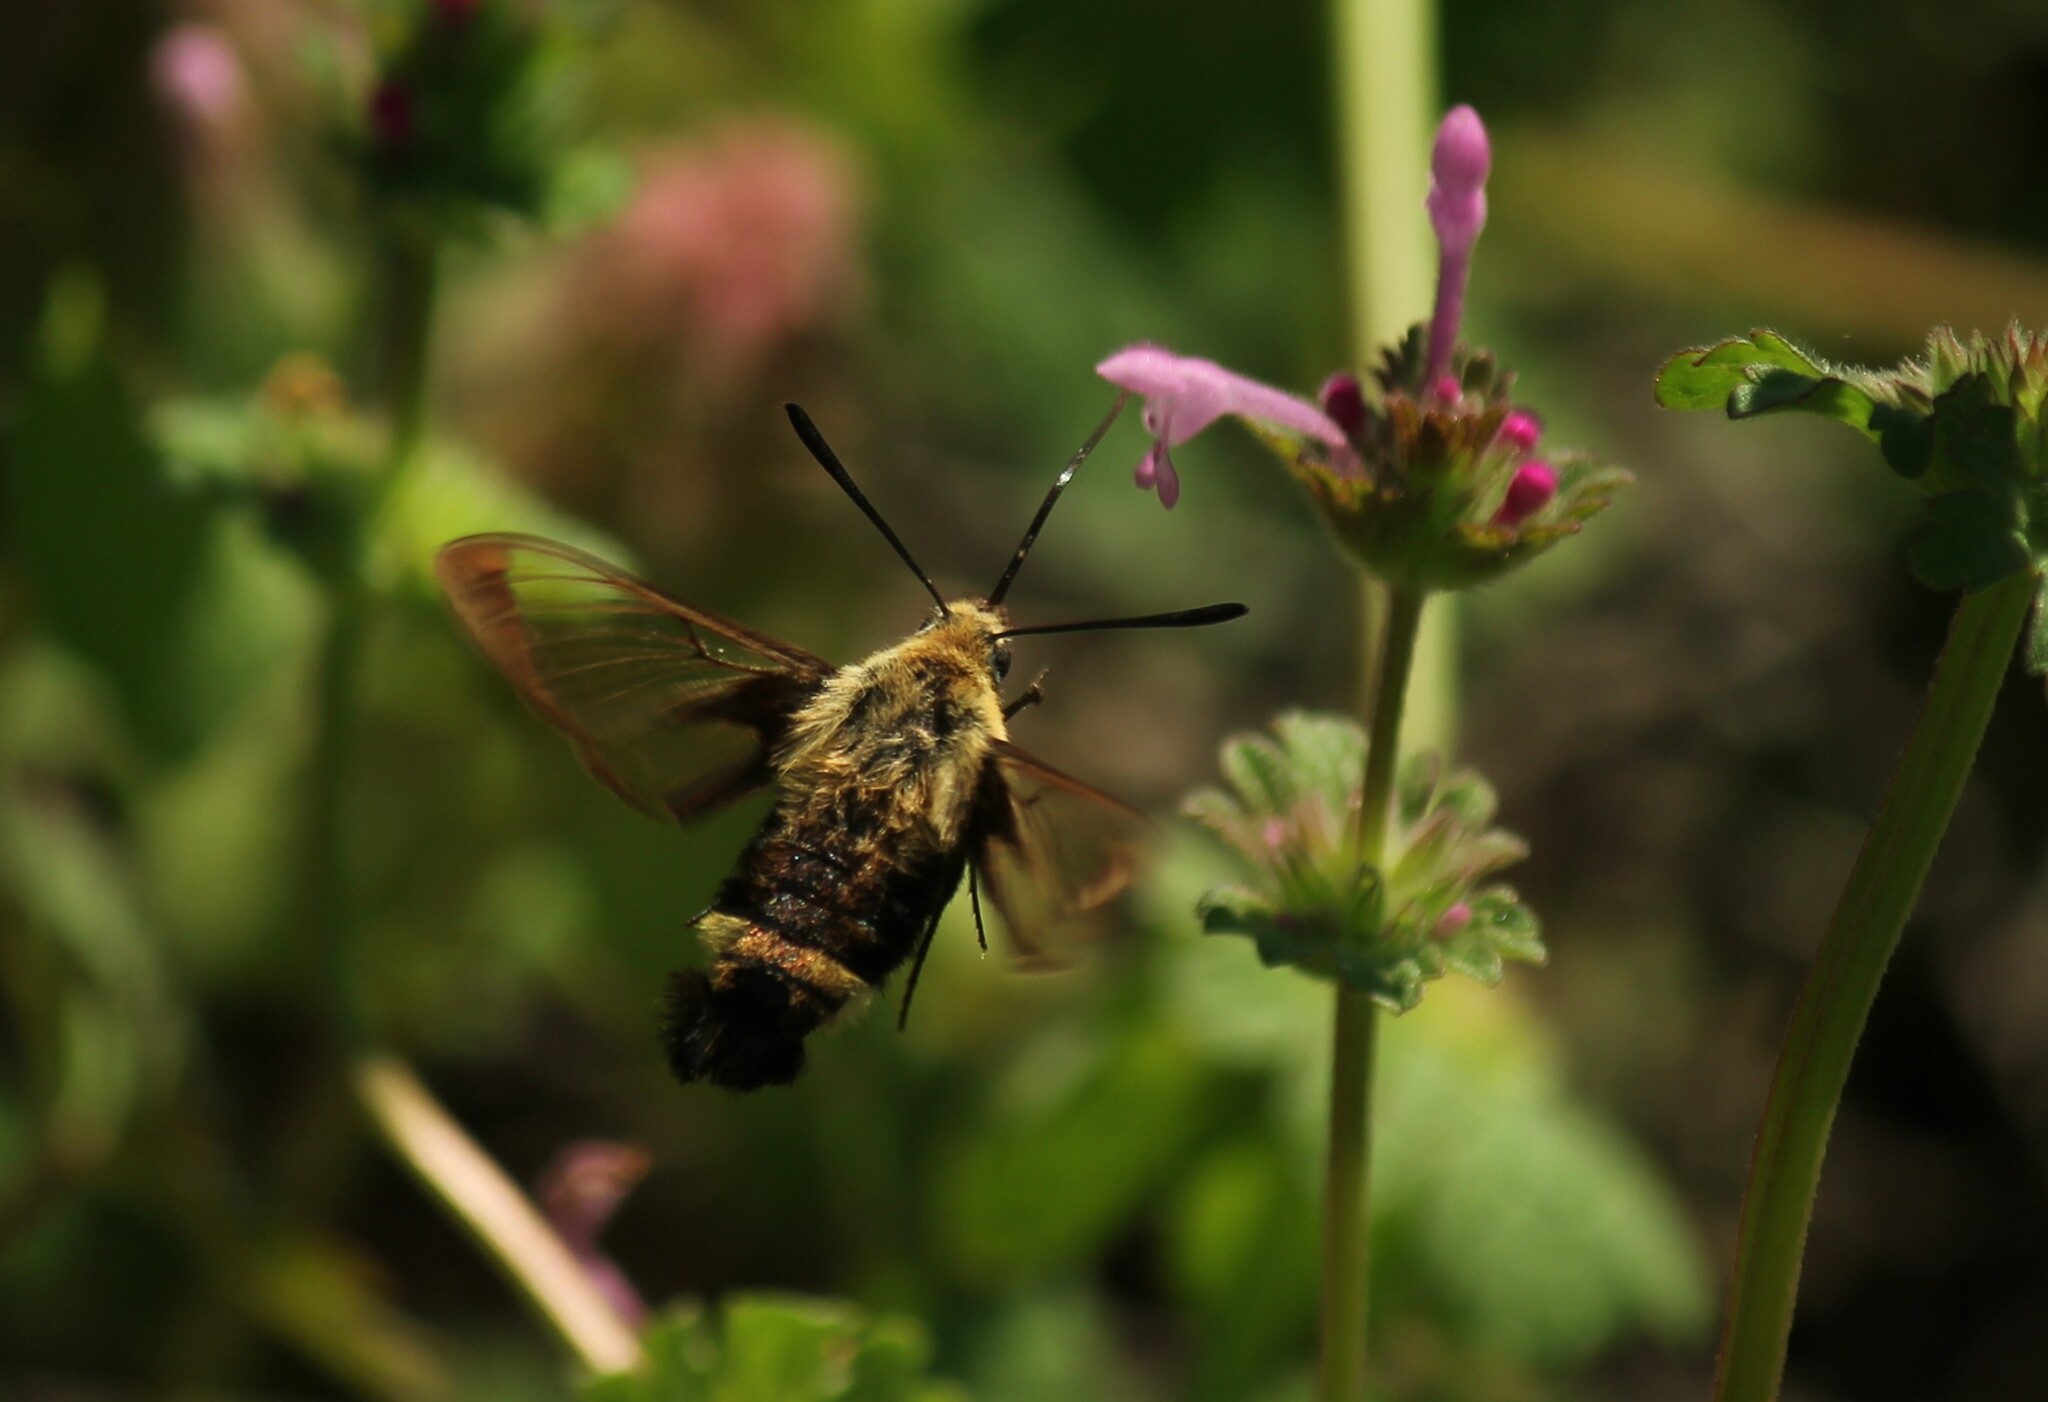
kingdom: Animalia
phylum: Arthropoda
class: Insecta
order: Lepidoptera
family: Sphingidae
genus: Hemaris
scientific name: Hemaris diffinis
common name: Bumblebee moth
